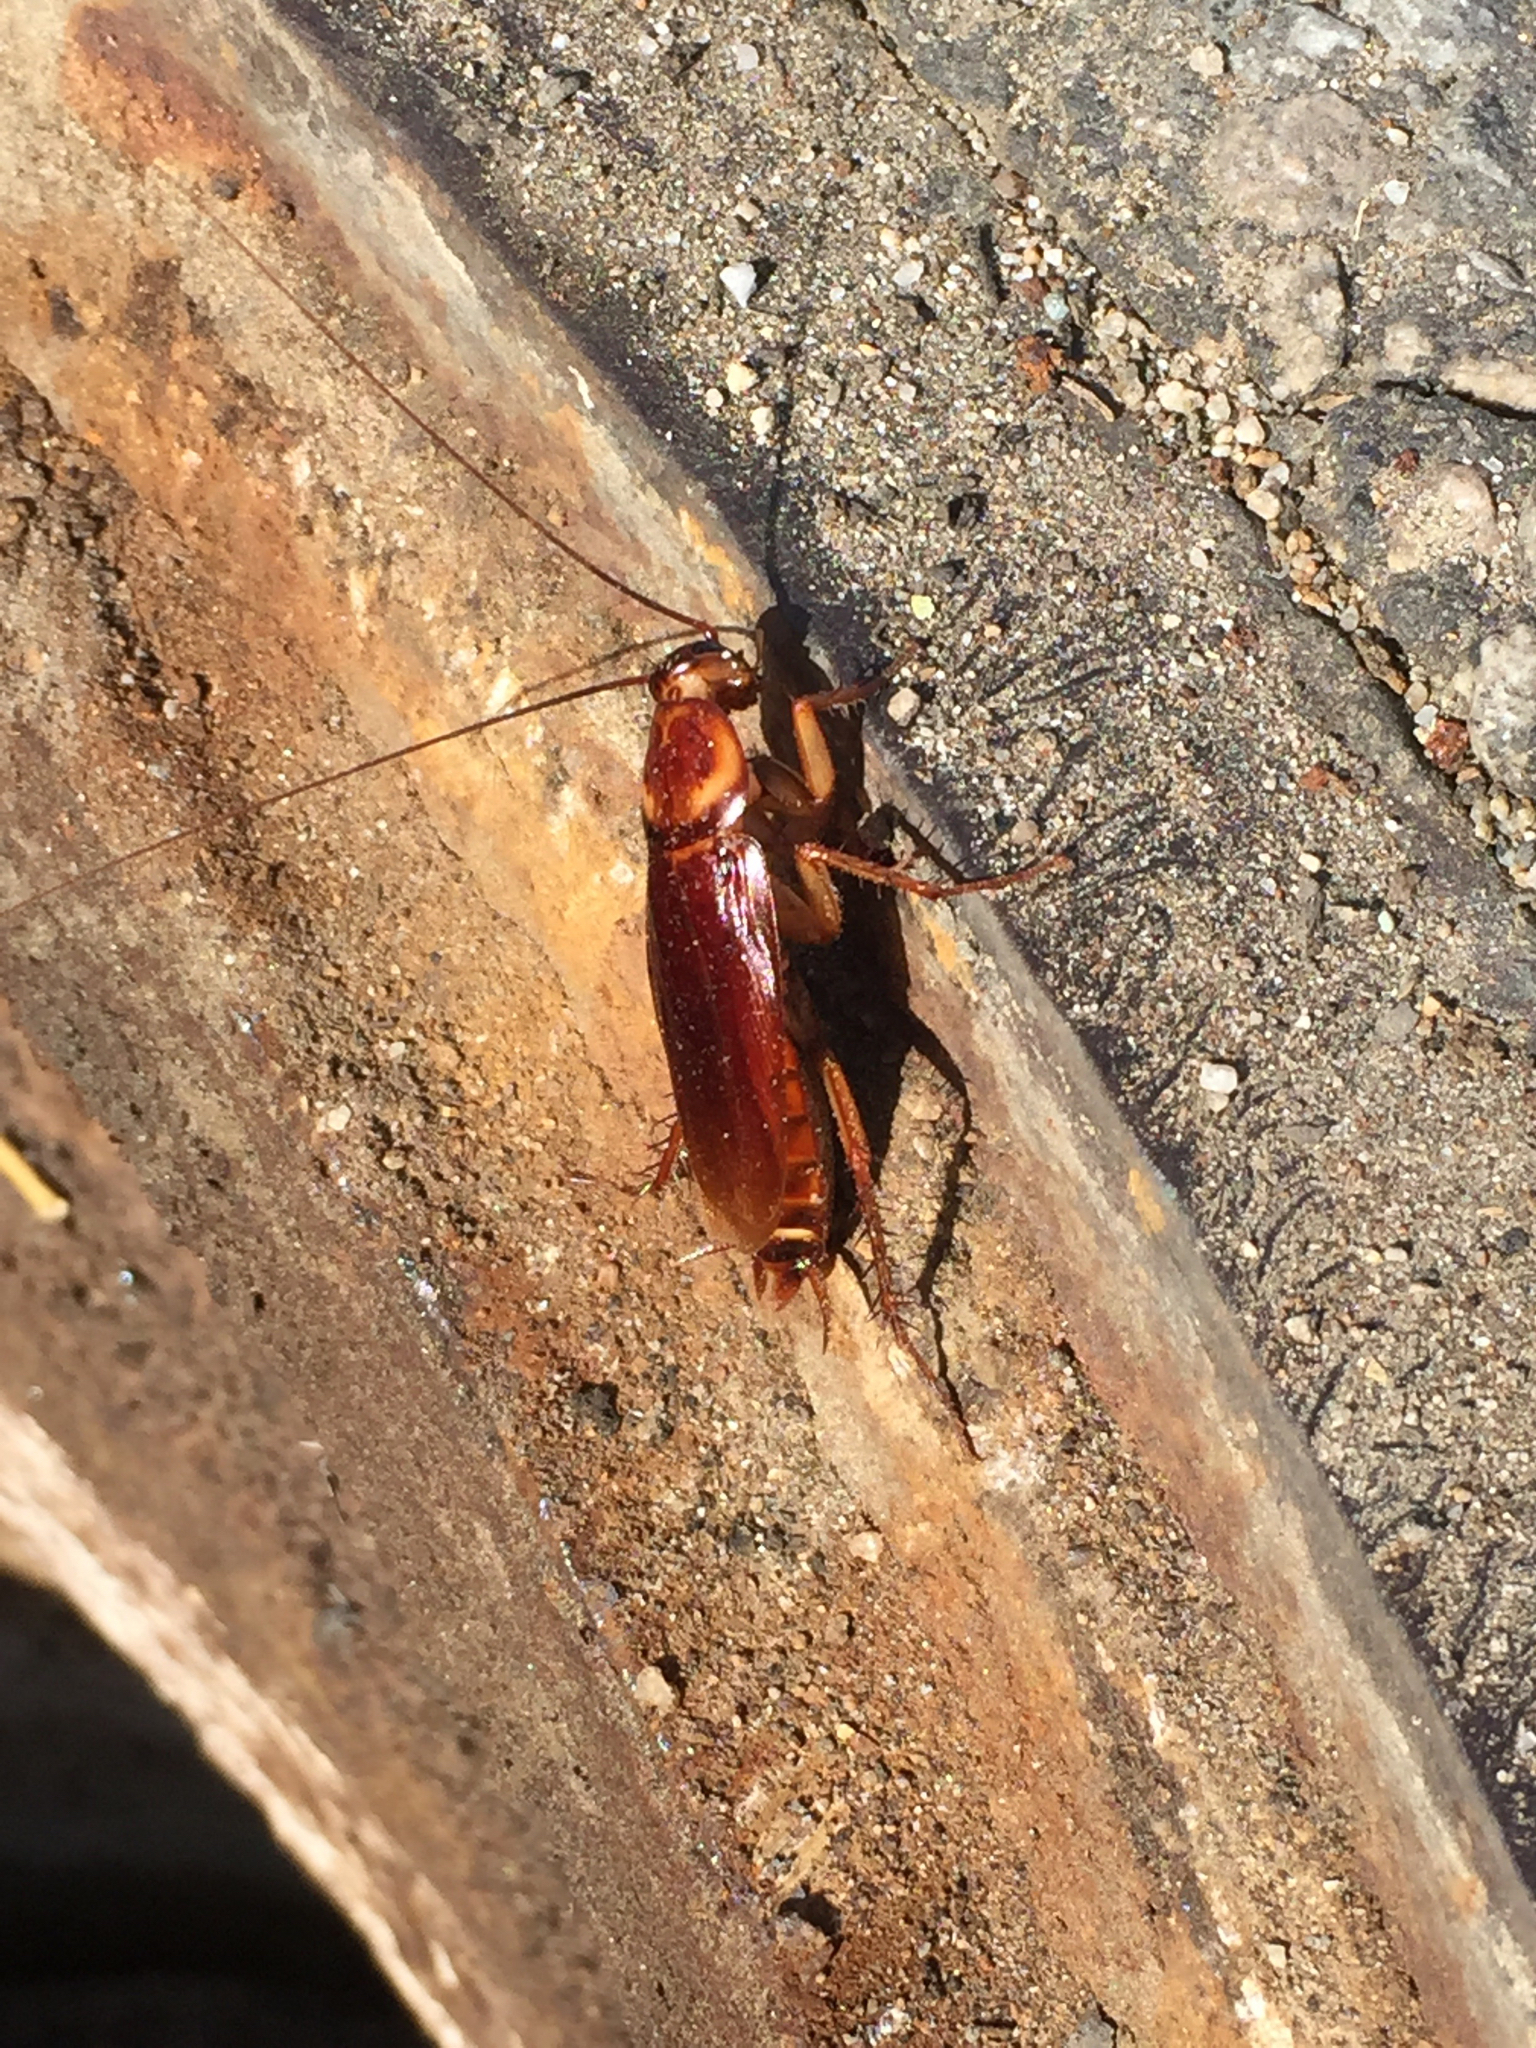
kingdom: Animalia
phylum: Arthropoda
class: Insecta
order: Blattodea
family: Blattidae
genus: Periplaneta
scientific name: Periplaneta americana
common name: American cockroach
